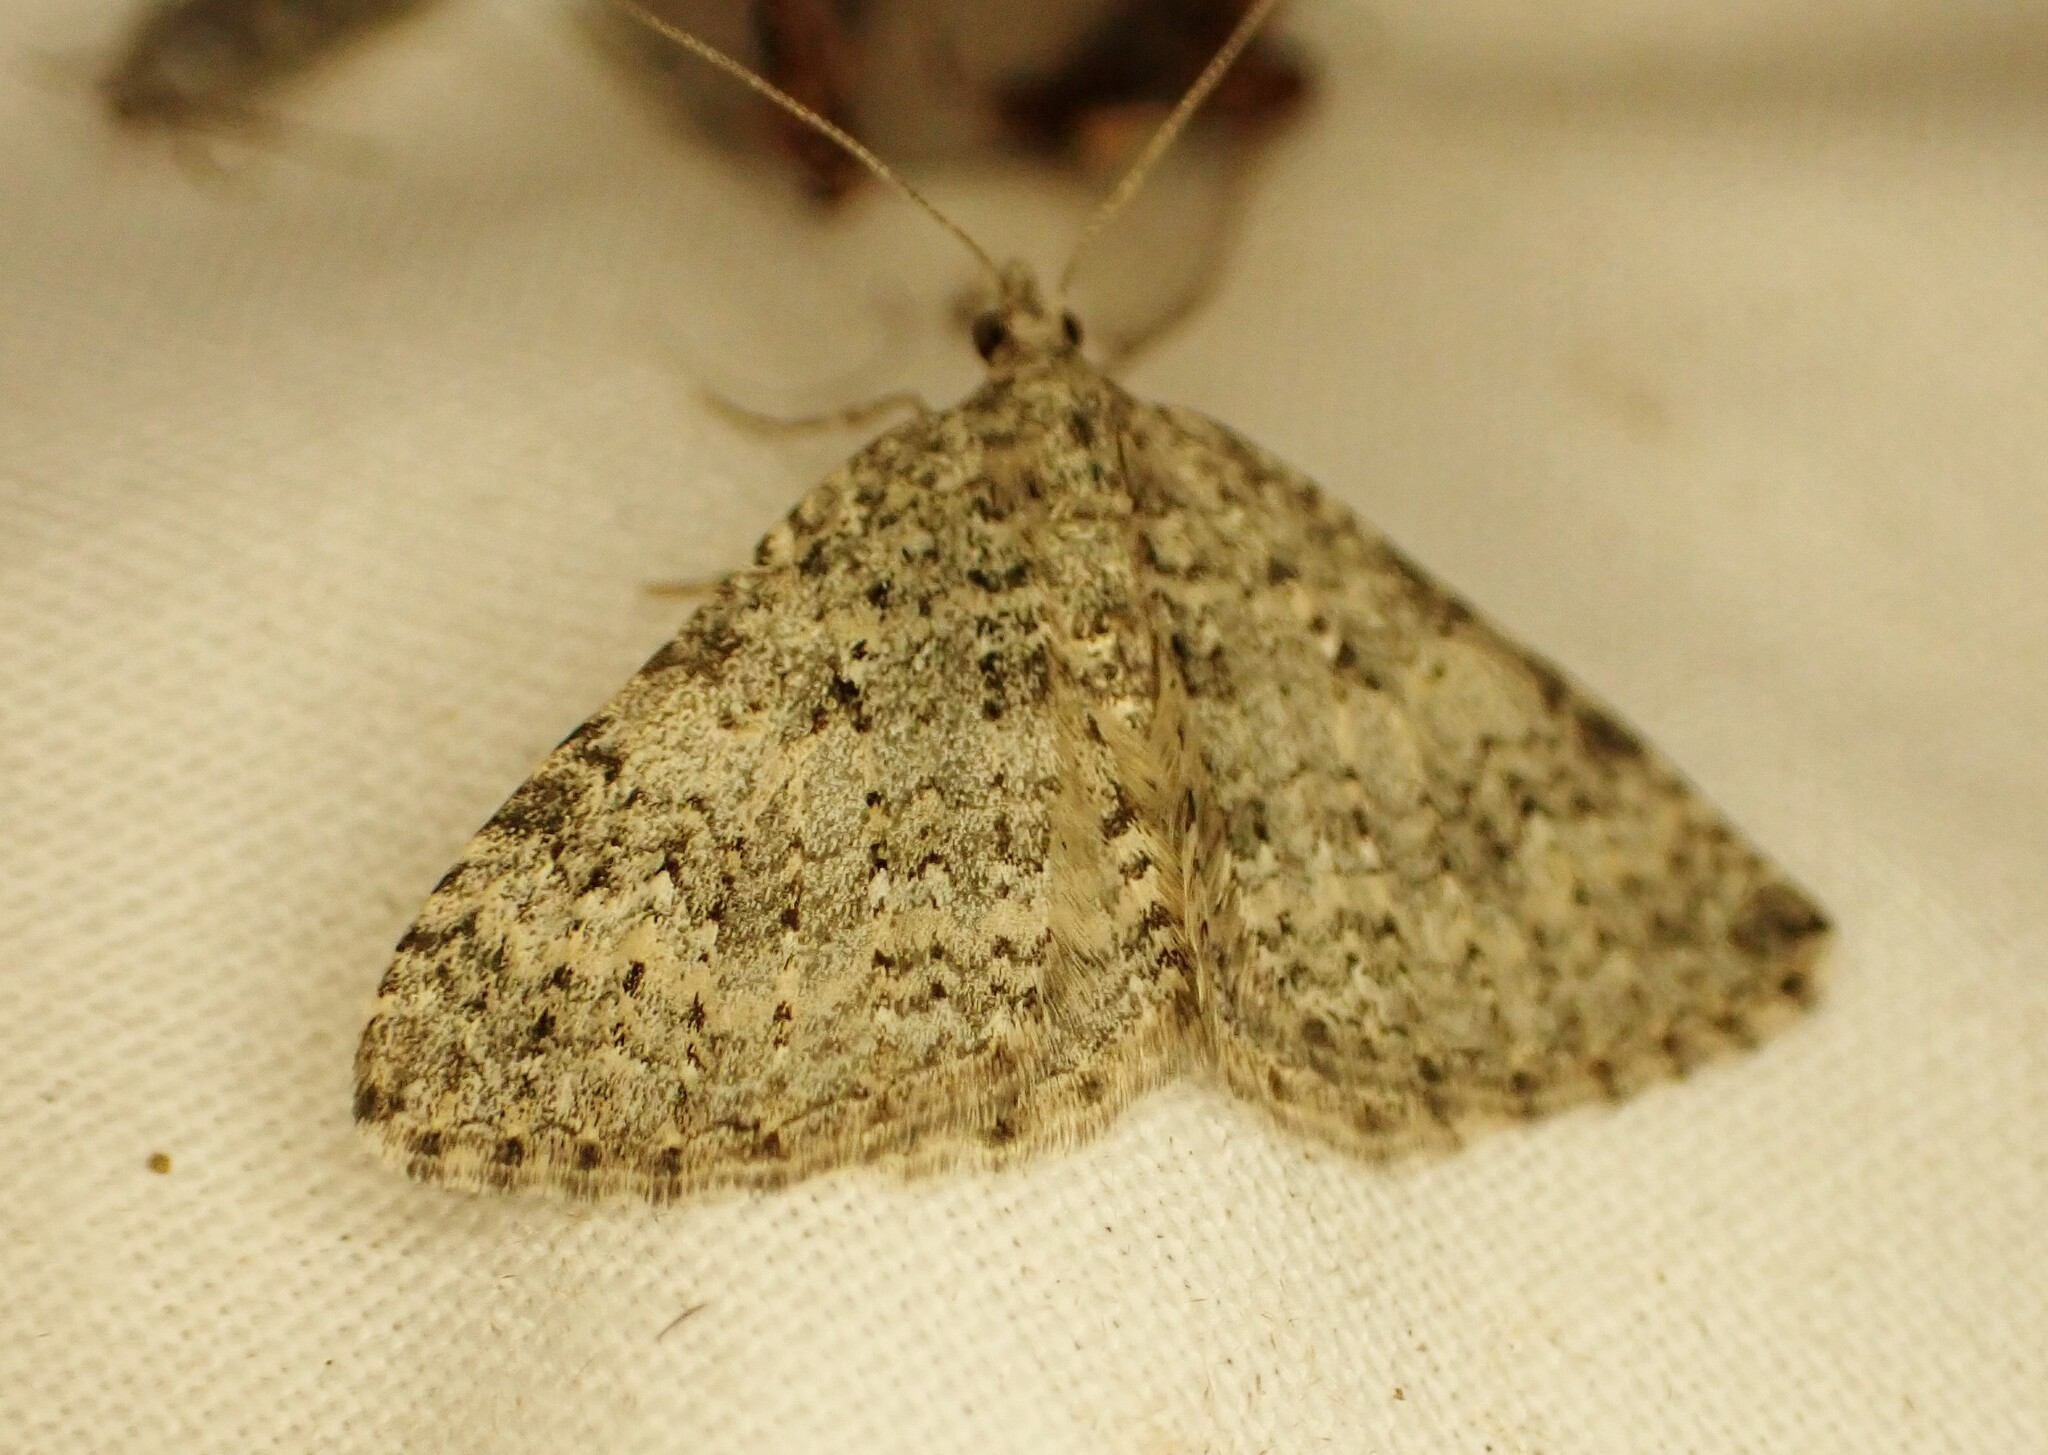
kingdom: Animalia
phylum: Arthropoda
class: Insecta
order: Lepidoptera
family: Geometridae
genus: Helastia
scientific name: Helastia corcularia
